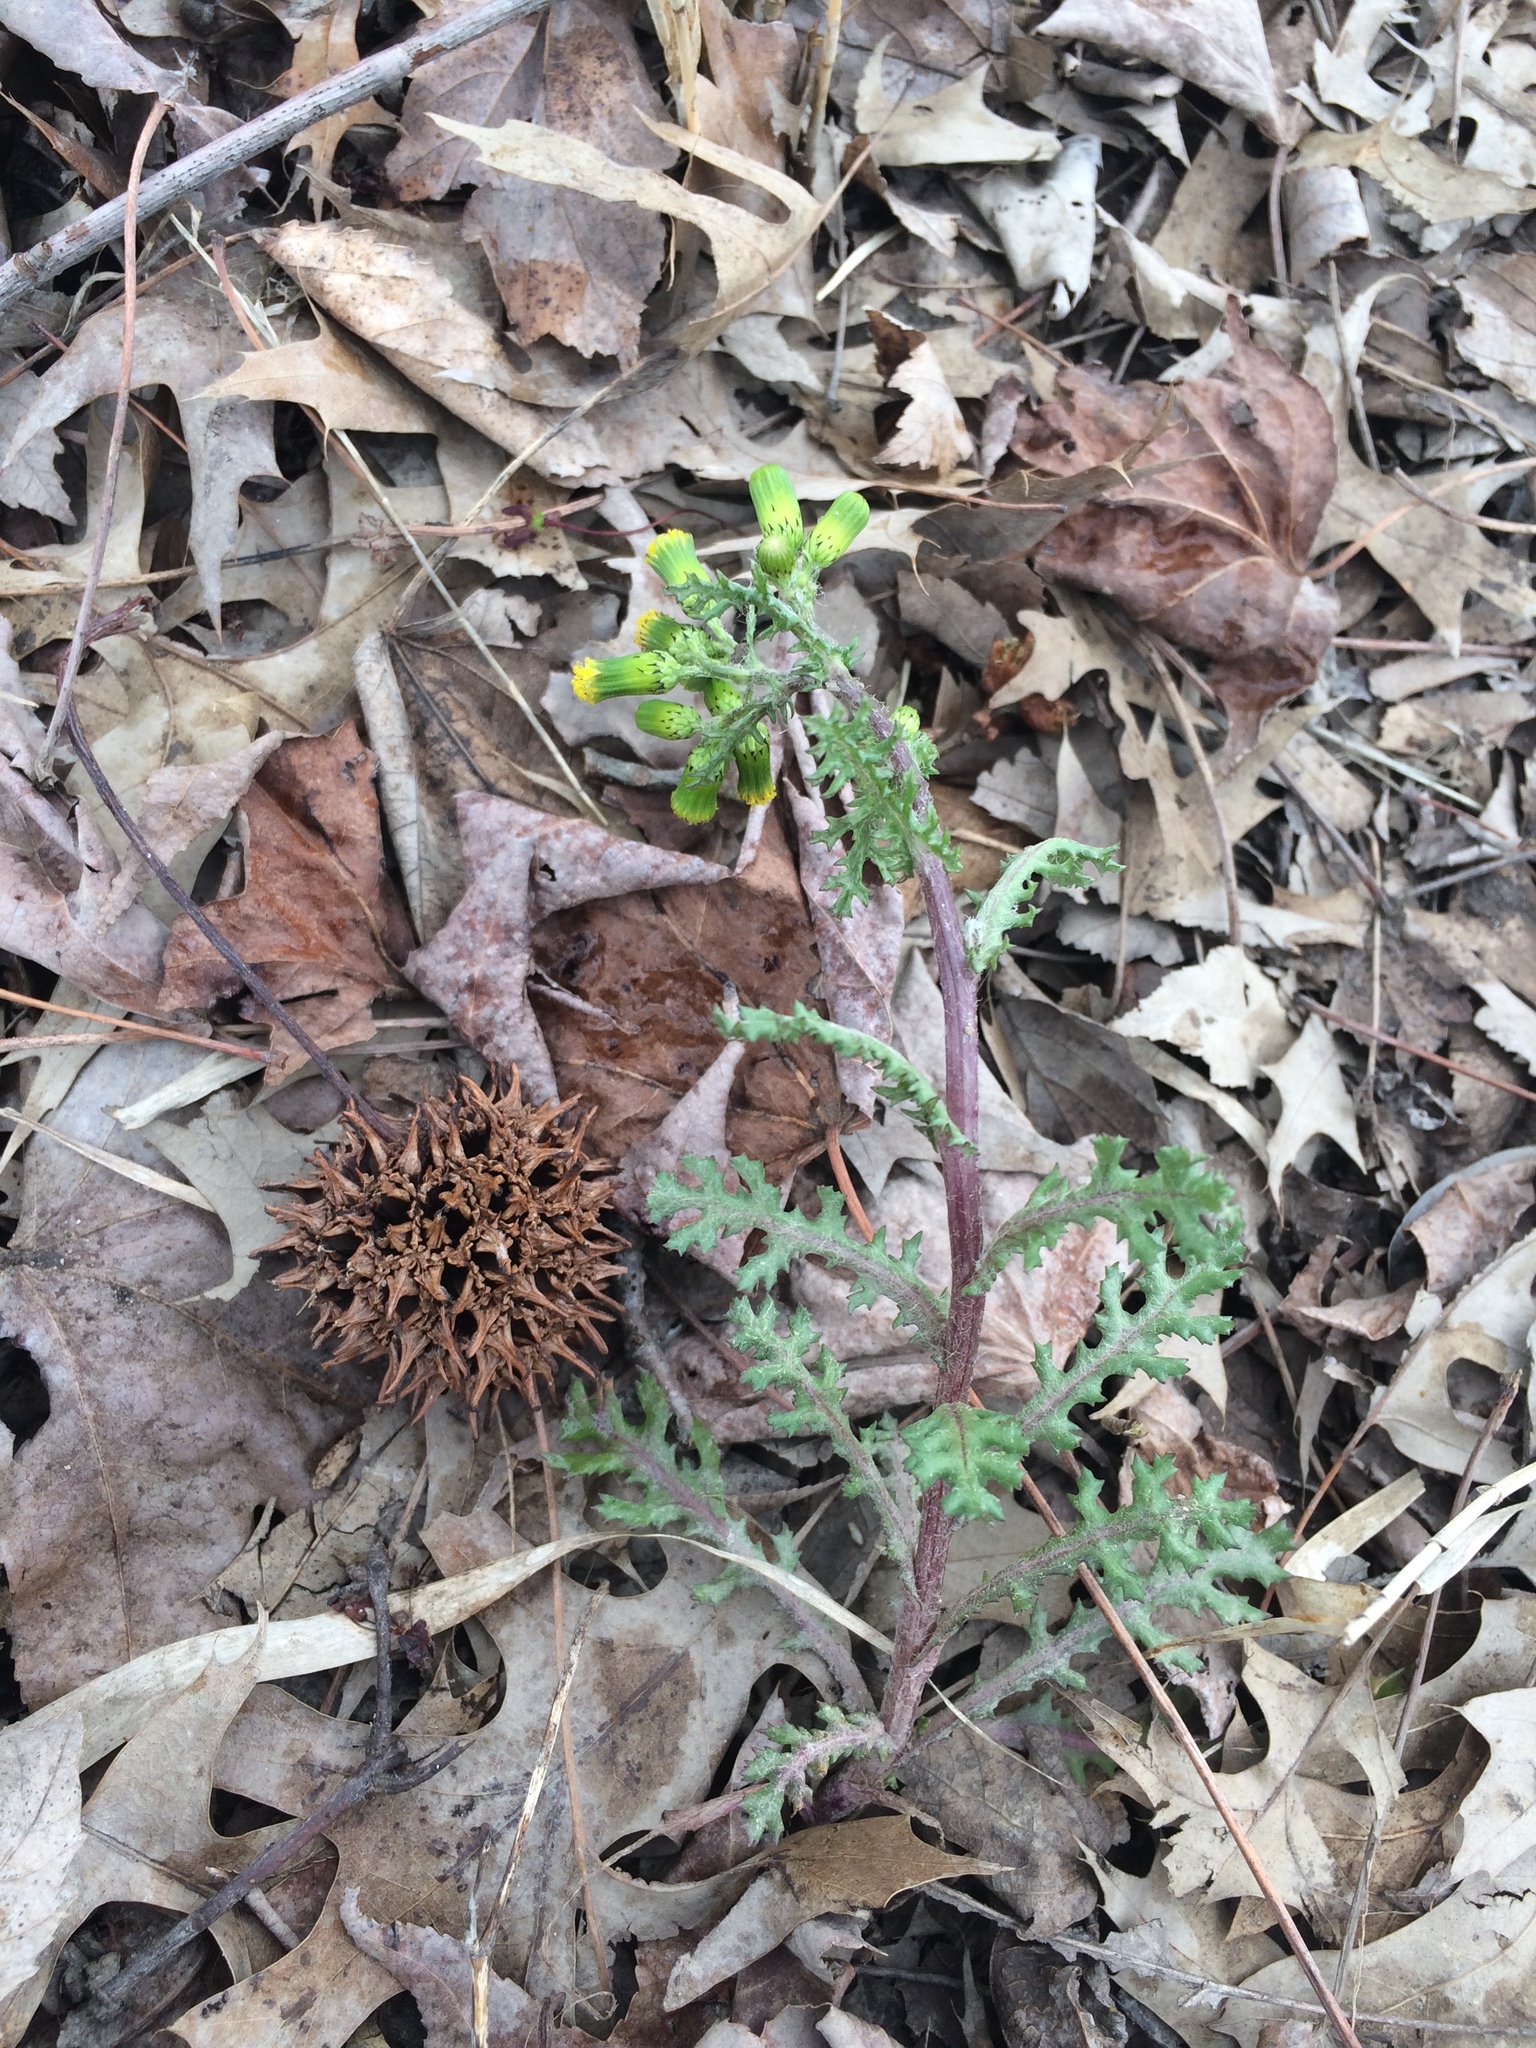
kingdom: Plantae
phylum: Tracheophyta
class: Magnoliopsida
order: Asterales
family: Asteraceae
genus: Senecio
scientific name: Senecio vulgaris
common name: Old-man-in-the-spring
